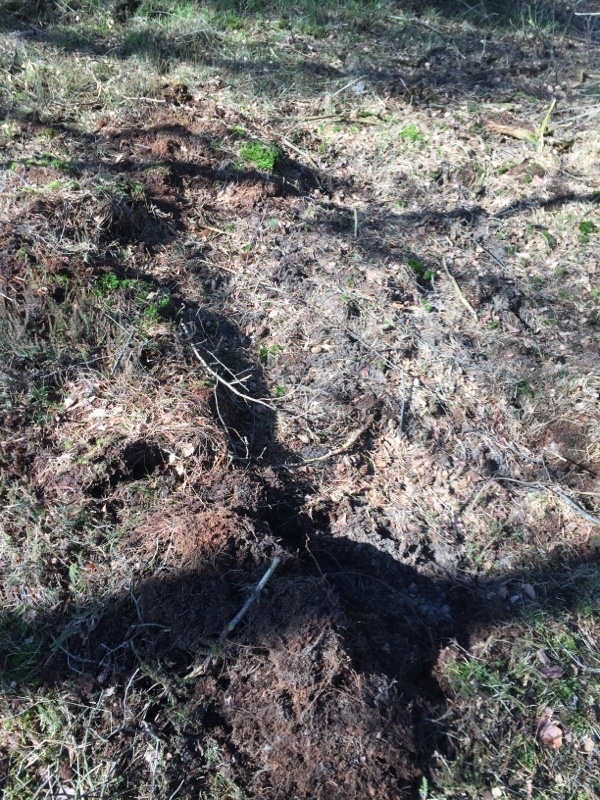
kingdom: Animalia
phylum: Chordata
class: Mammalia
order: Artiodactyla
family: Suidae
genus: Sus
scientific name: Sus scrofa
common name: Wild boar
